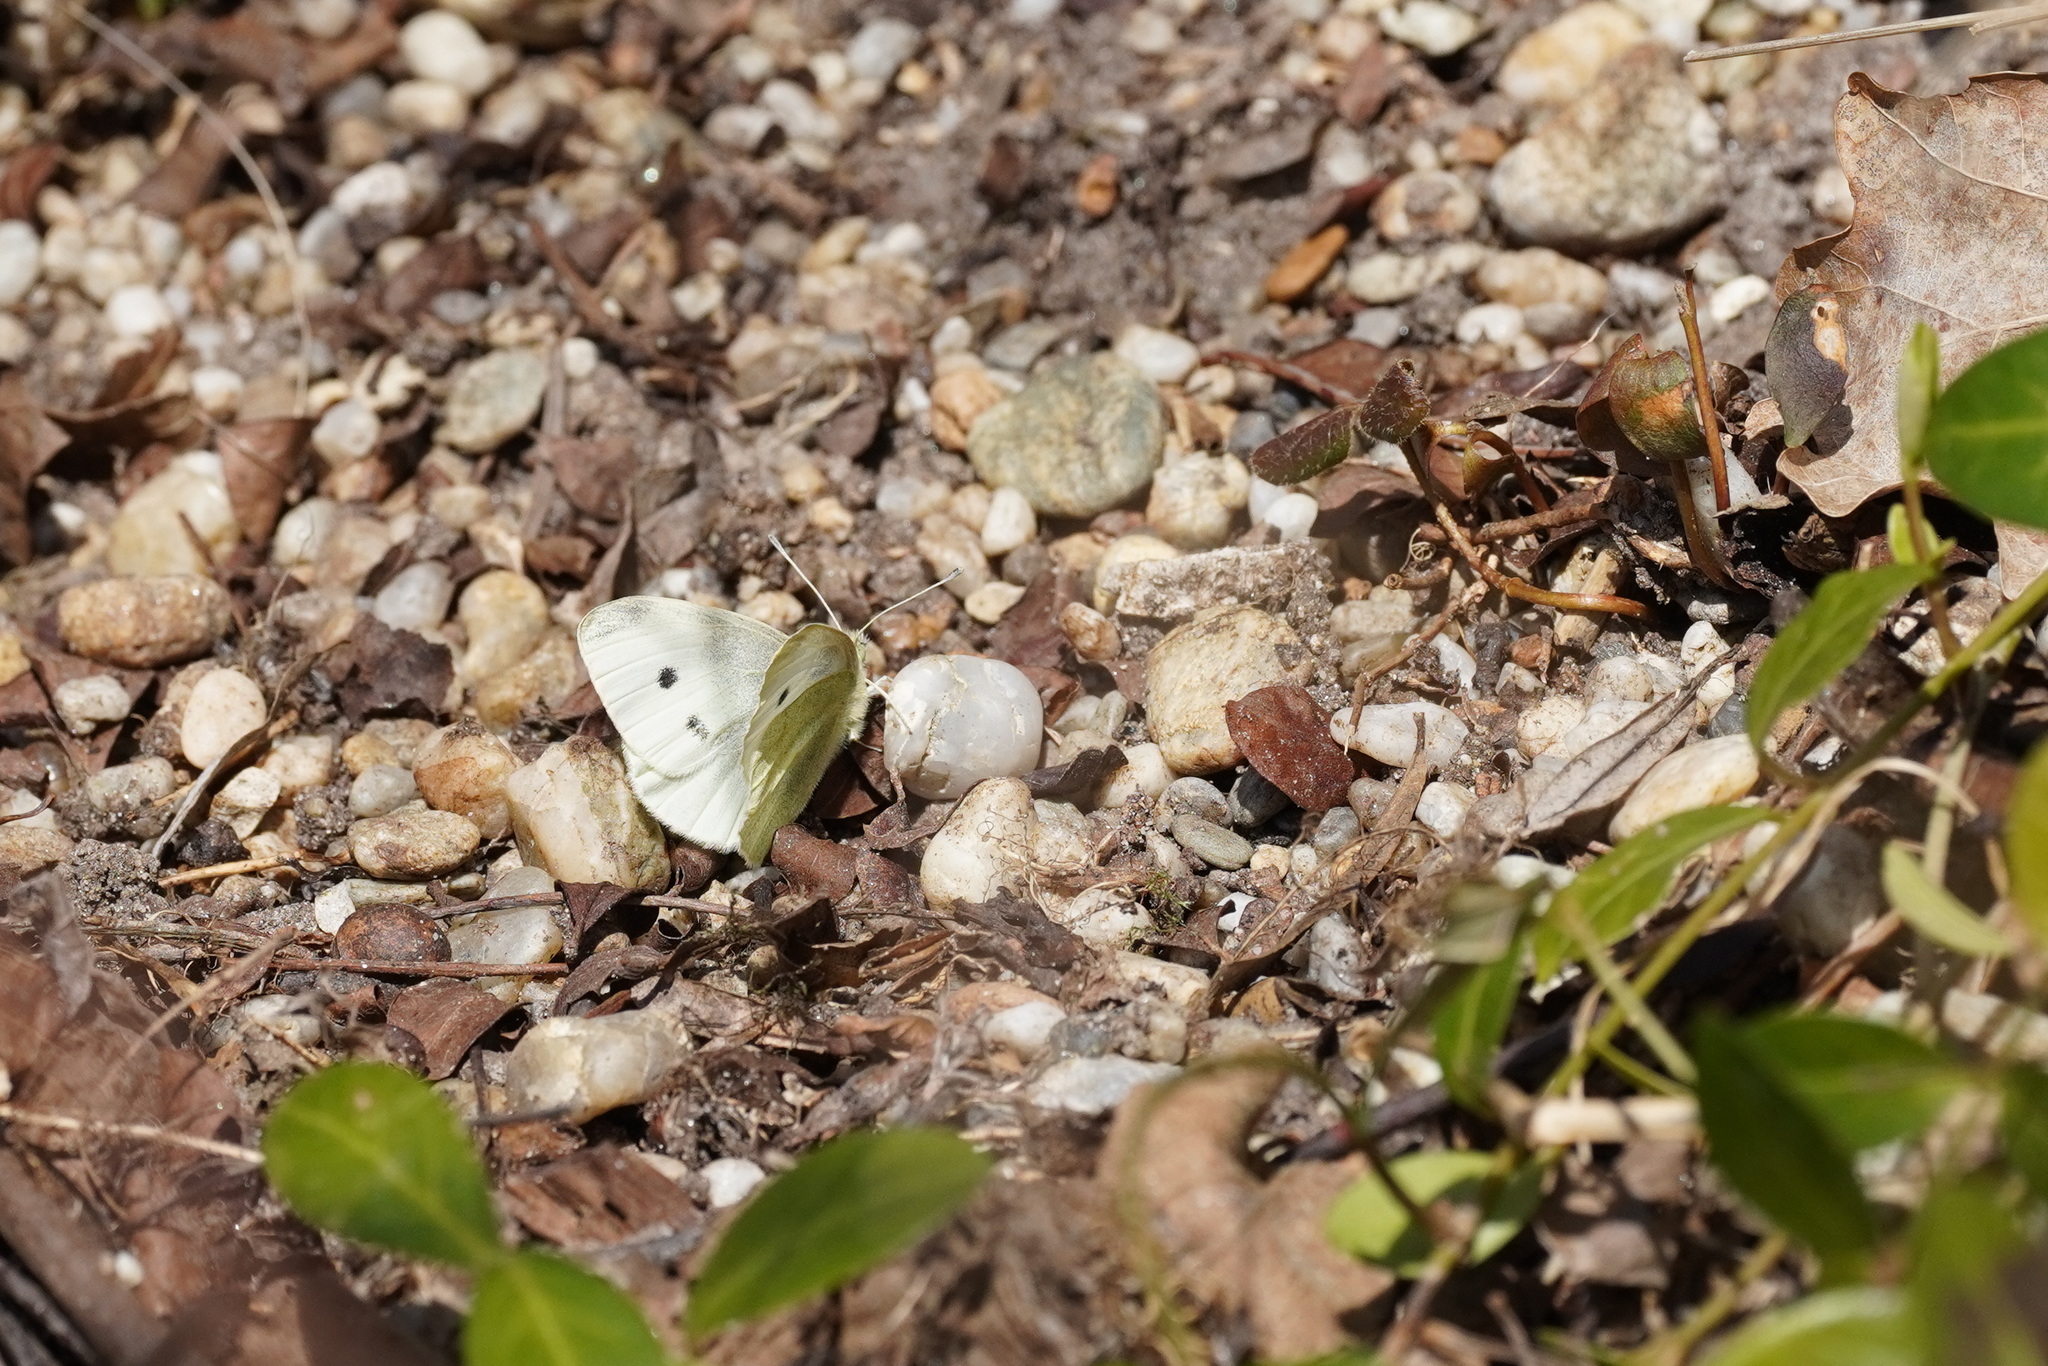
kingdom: Animalia
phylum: Arthropoda
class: Insecta
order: Lepidoptera
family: Pieridae
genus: Pieris
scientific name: Pieris rapae
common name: Small white
